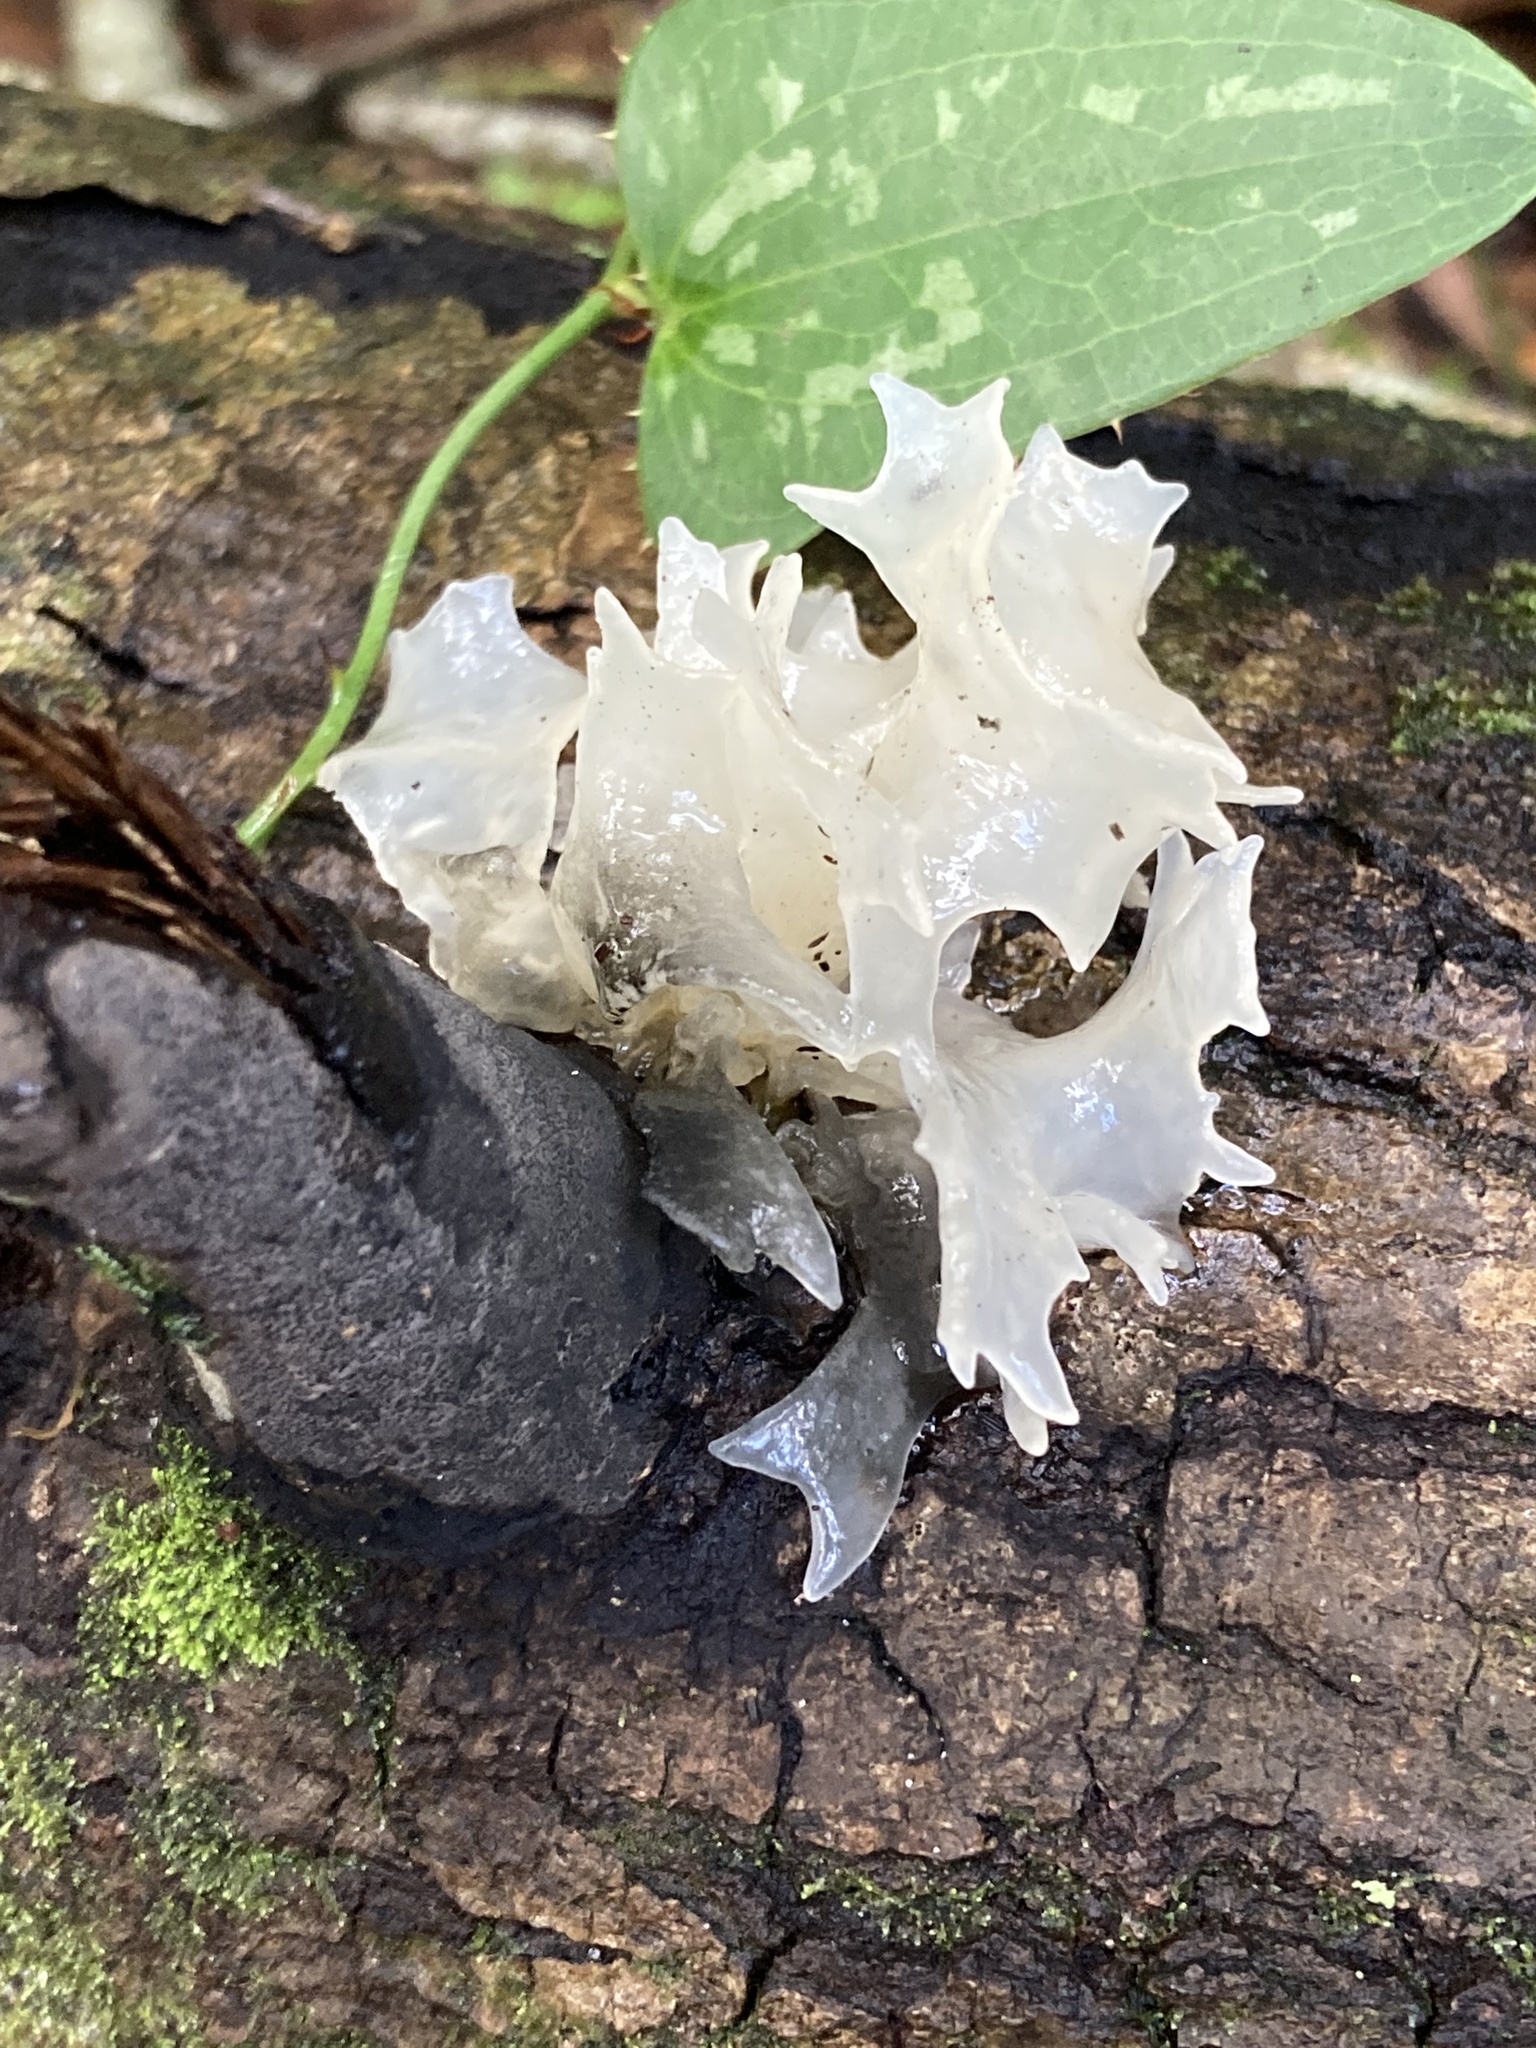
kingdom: Fungi
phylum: Basidiomycota
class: Tremellomycetes
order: Tremellales
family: Tremellaceae
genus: Tremella
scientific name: Tremella fuciformis
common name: Snow fungus
